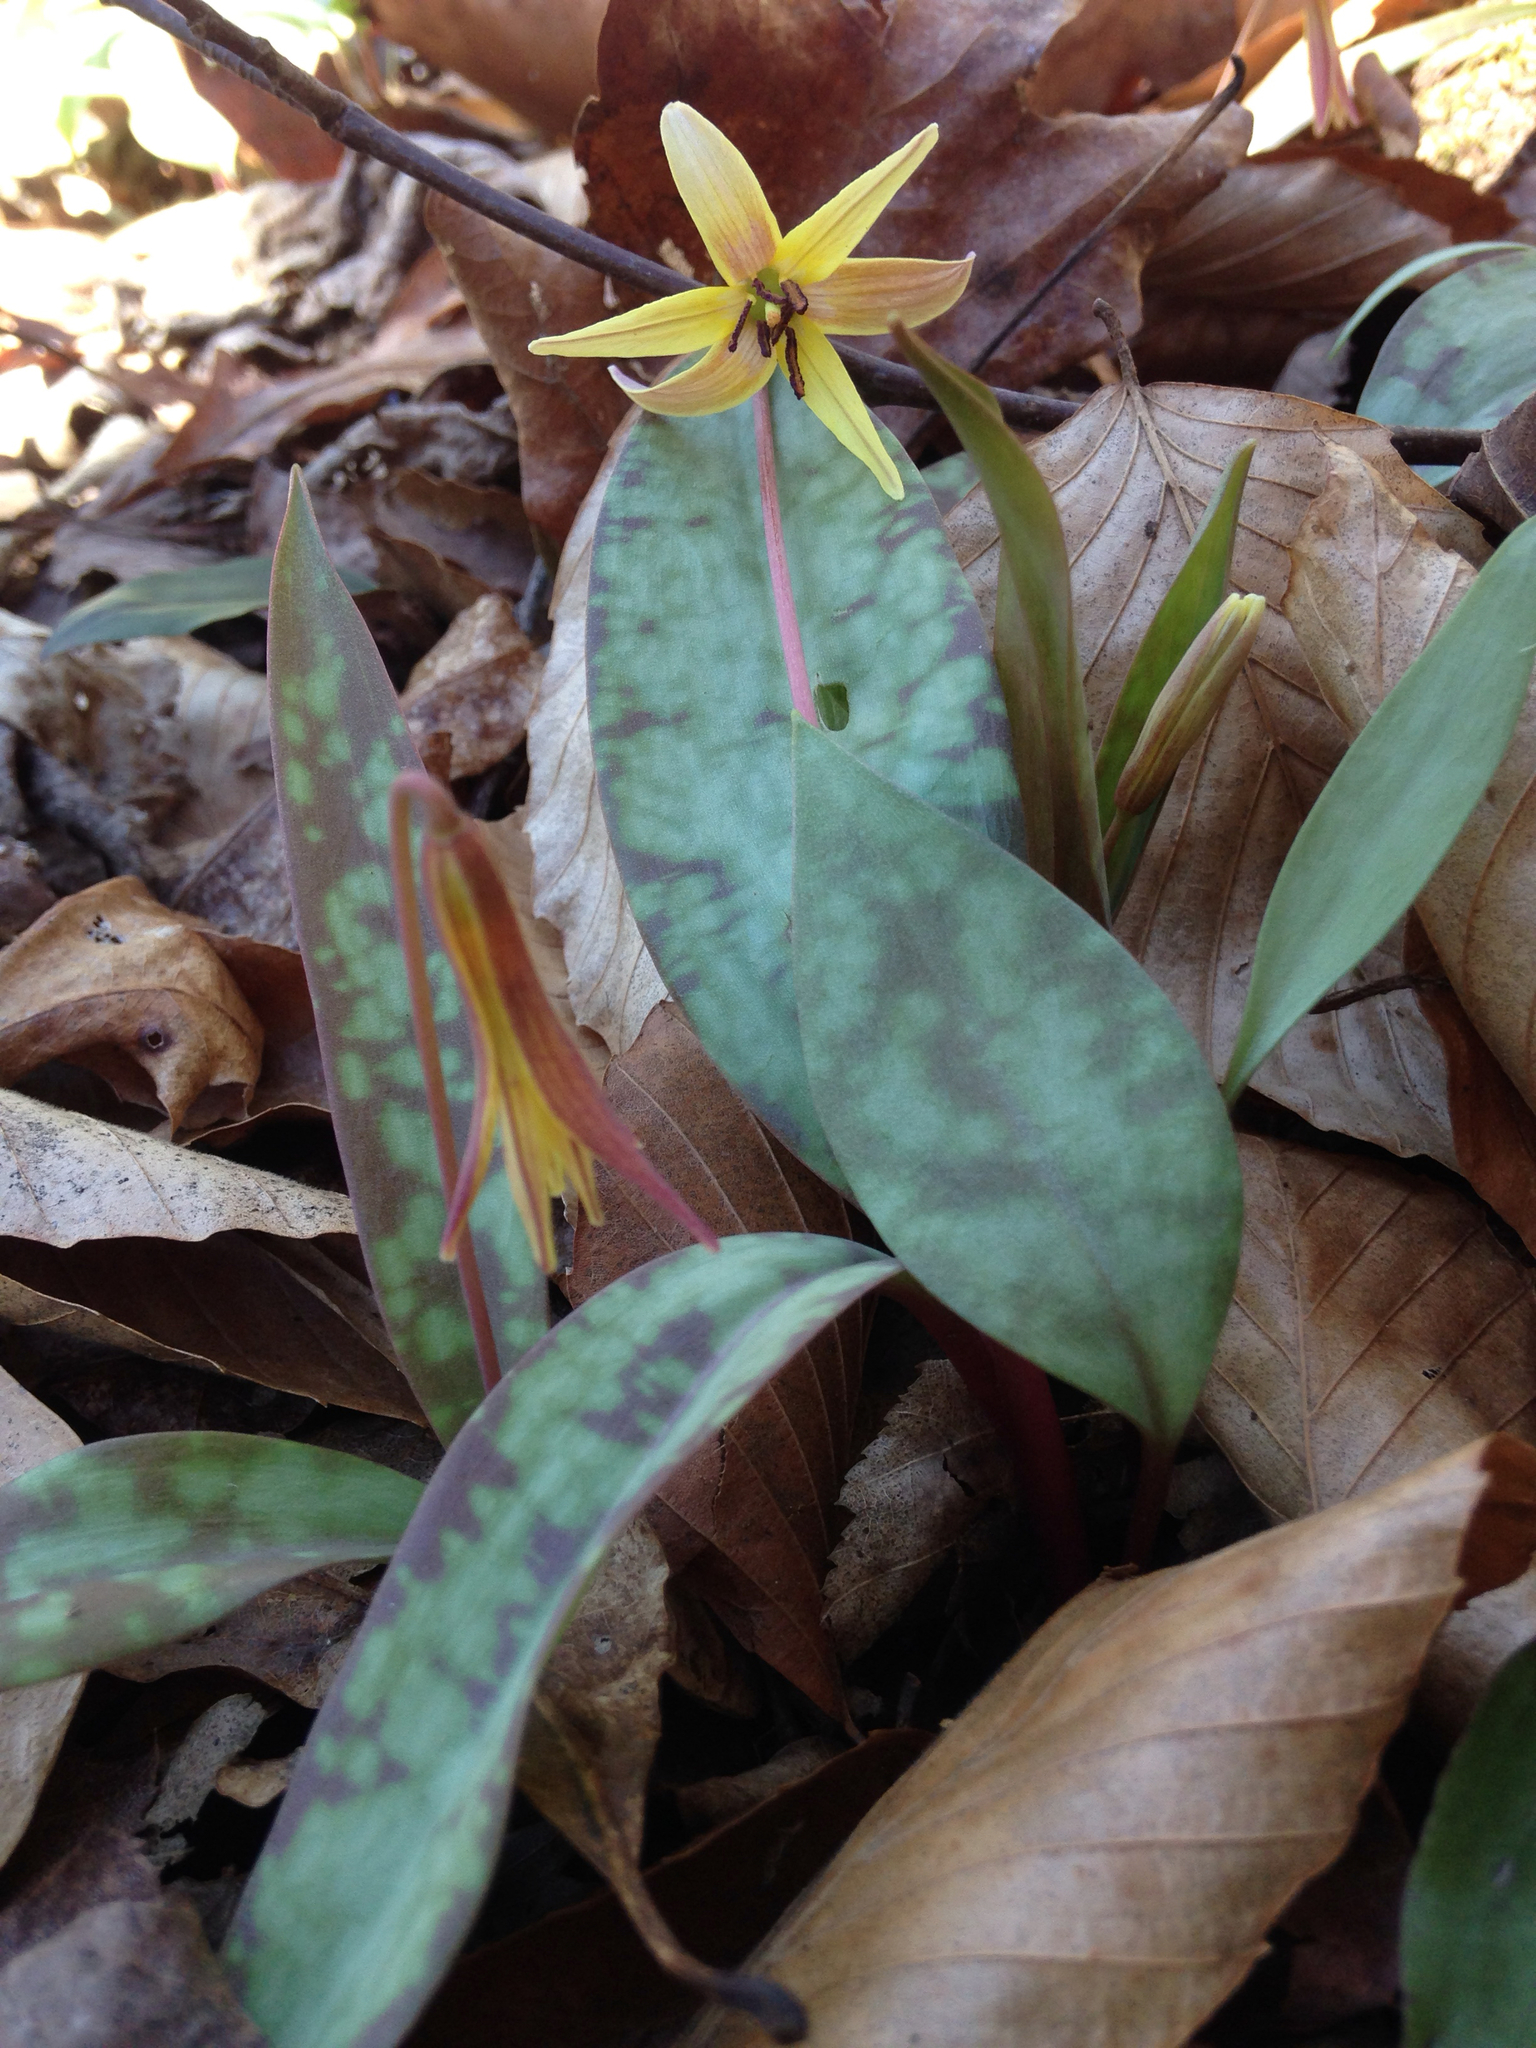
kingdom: Plantae
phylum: Tracheophyta
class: Liliopsida
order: Liliales
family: Liliaceae
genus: Erythronium
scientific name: Erythronium umbilicatum
